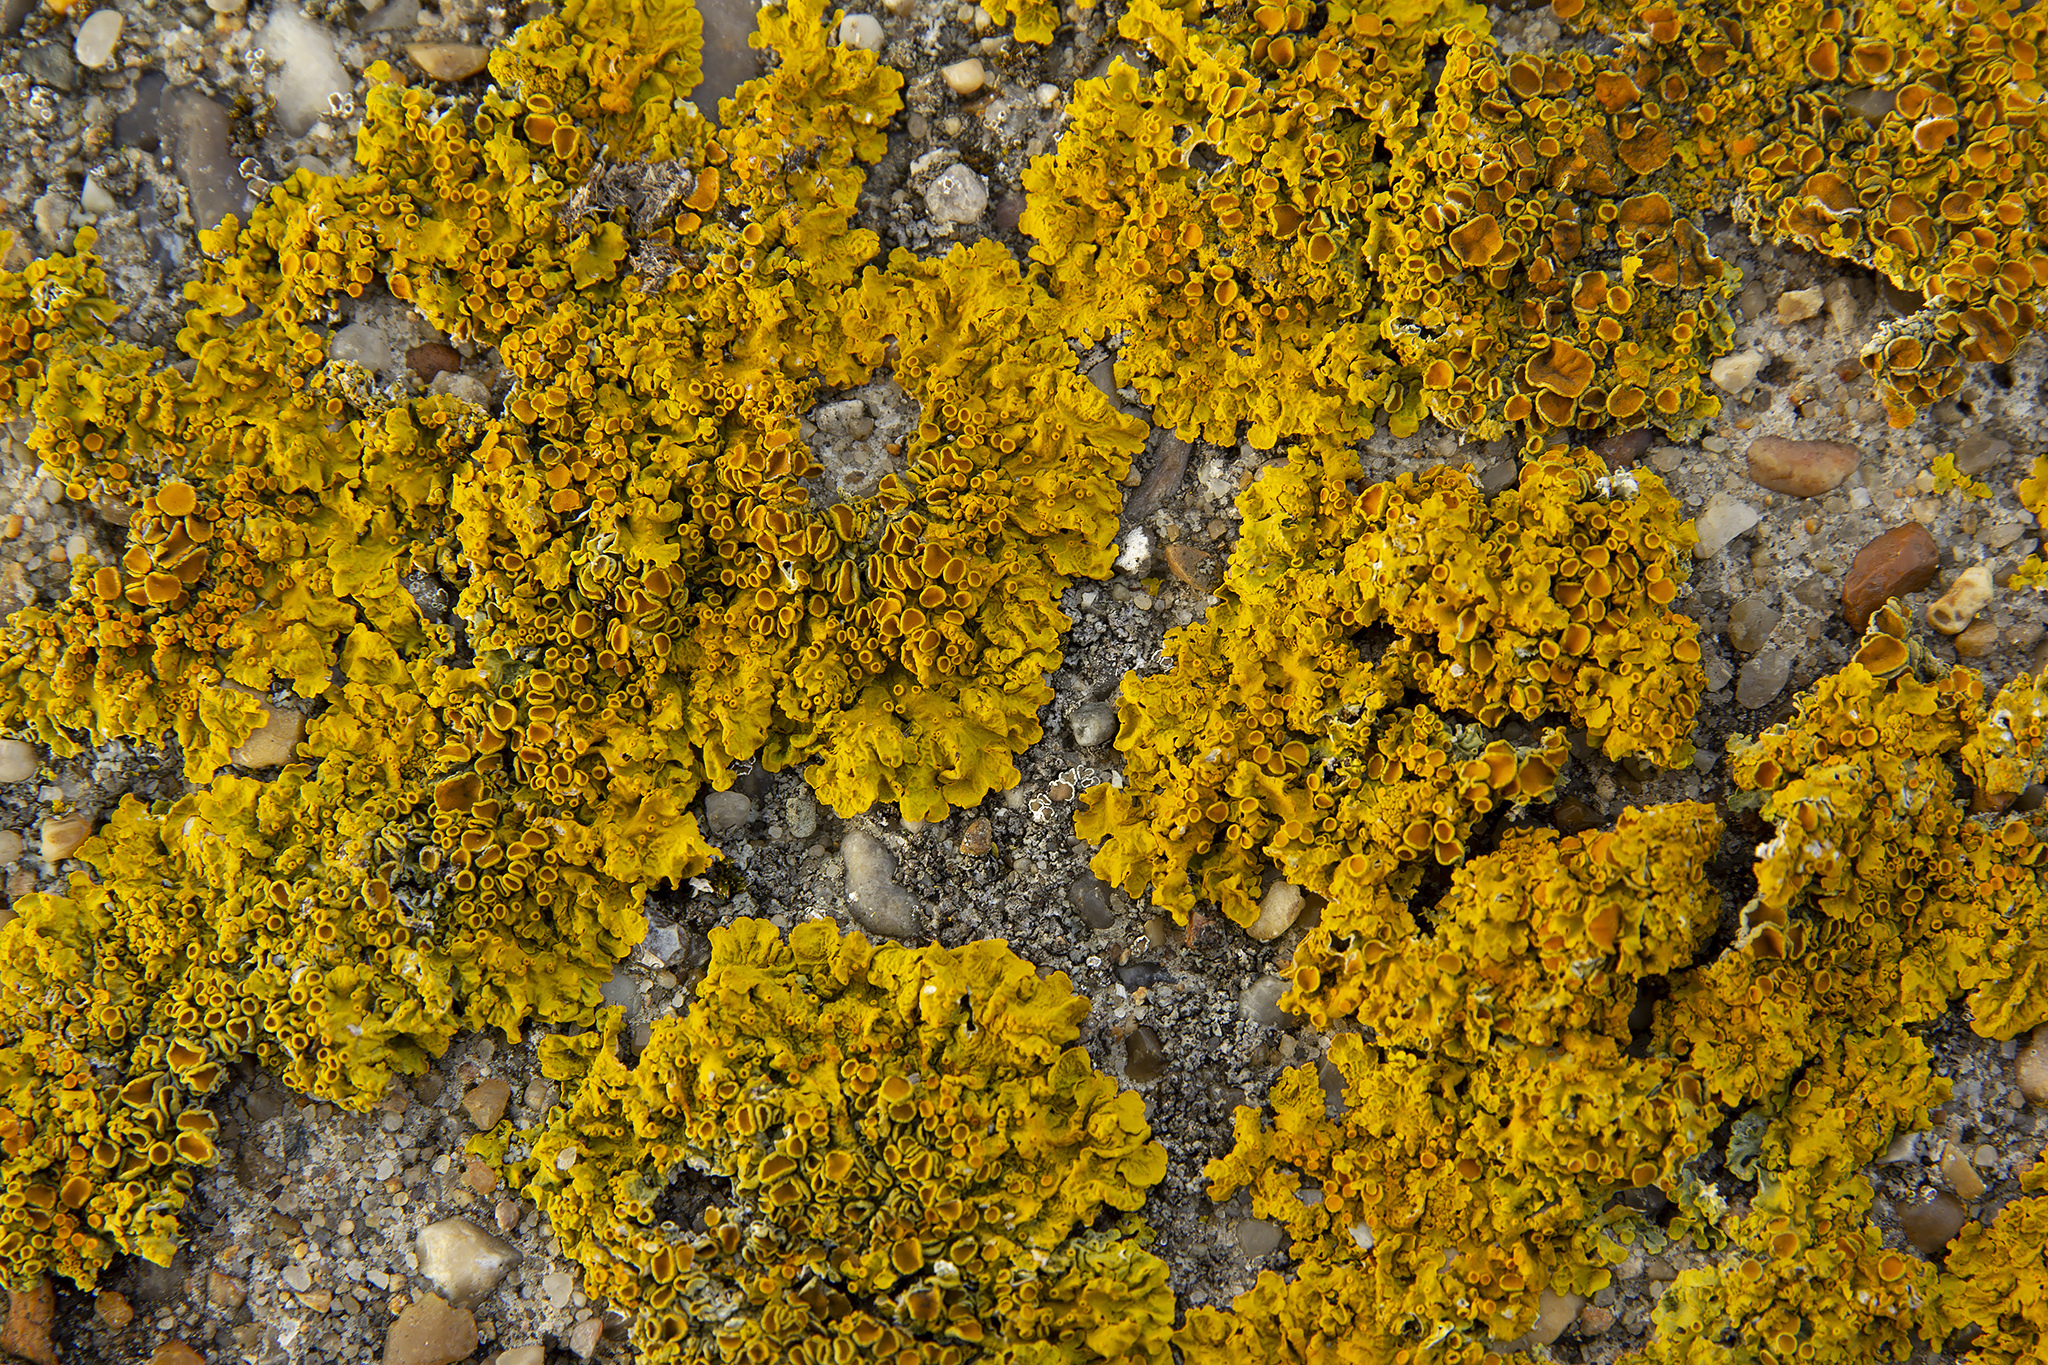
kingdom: Fungi
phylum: Ascomycota
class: Lecanoromycetes
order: Teloschistales
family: Teloschistaceae
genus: Xanthoria
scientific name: Xanthoria parietina
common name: Common orange lichen
